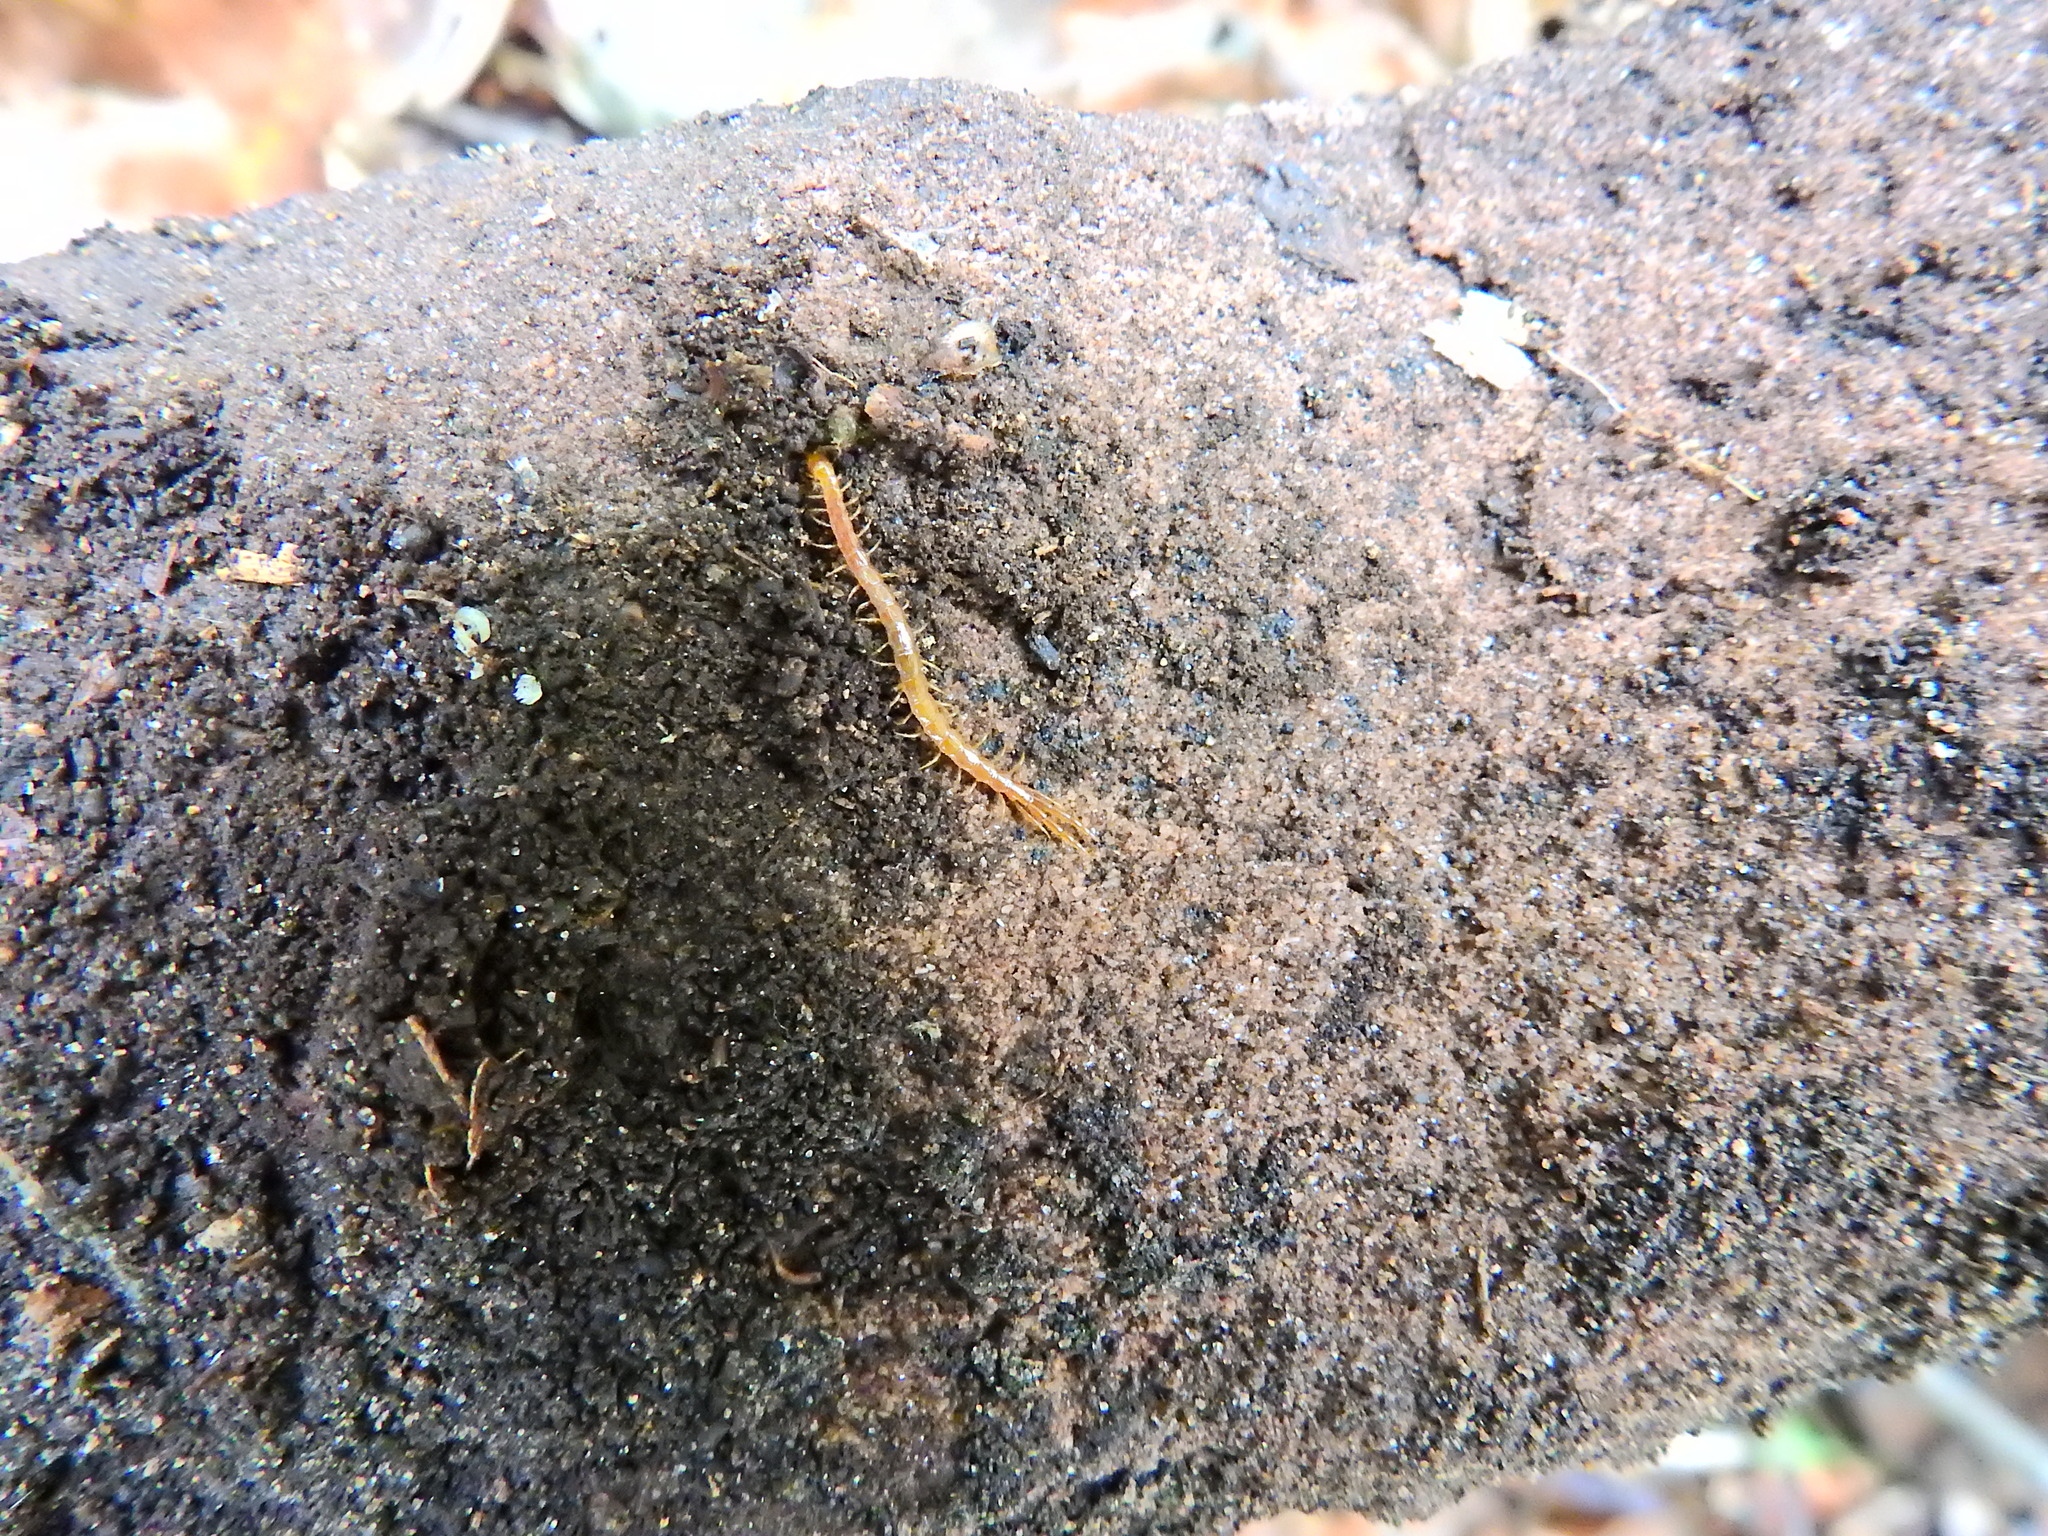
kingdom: Animalia
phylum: Arthropoda
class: Chilopoda
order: Scolopendromorpha
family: Cryptopidae
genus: Cryptops
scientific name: Cryptops
